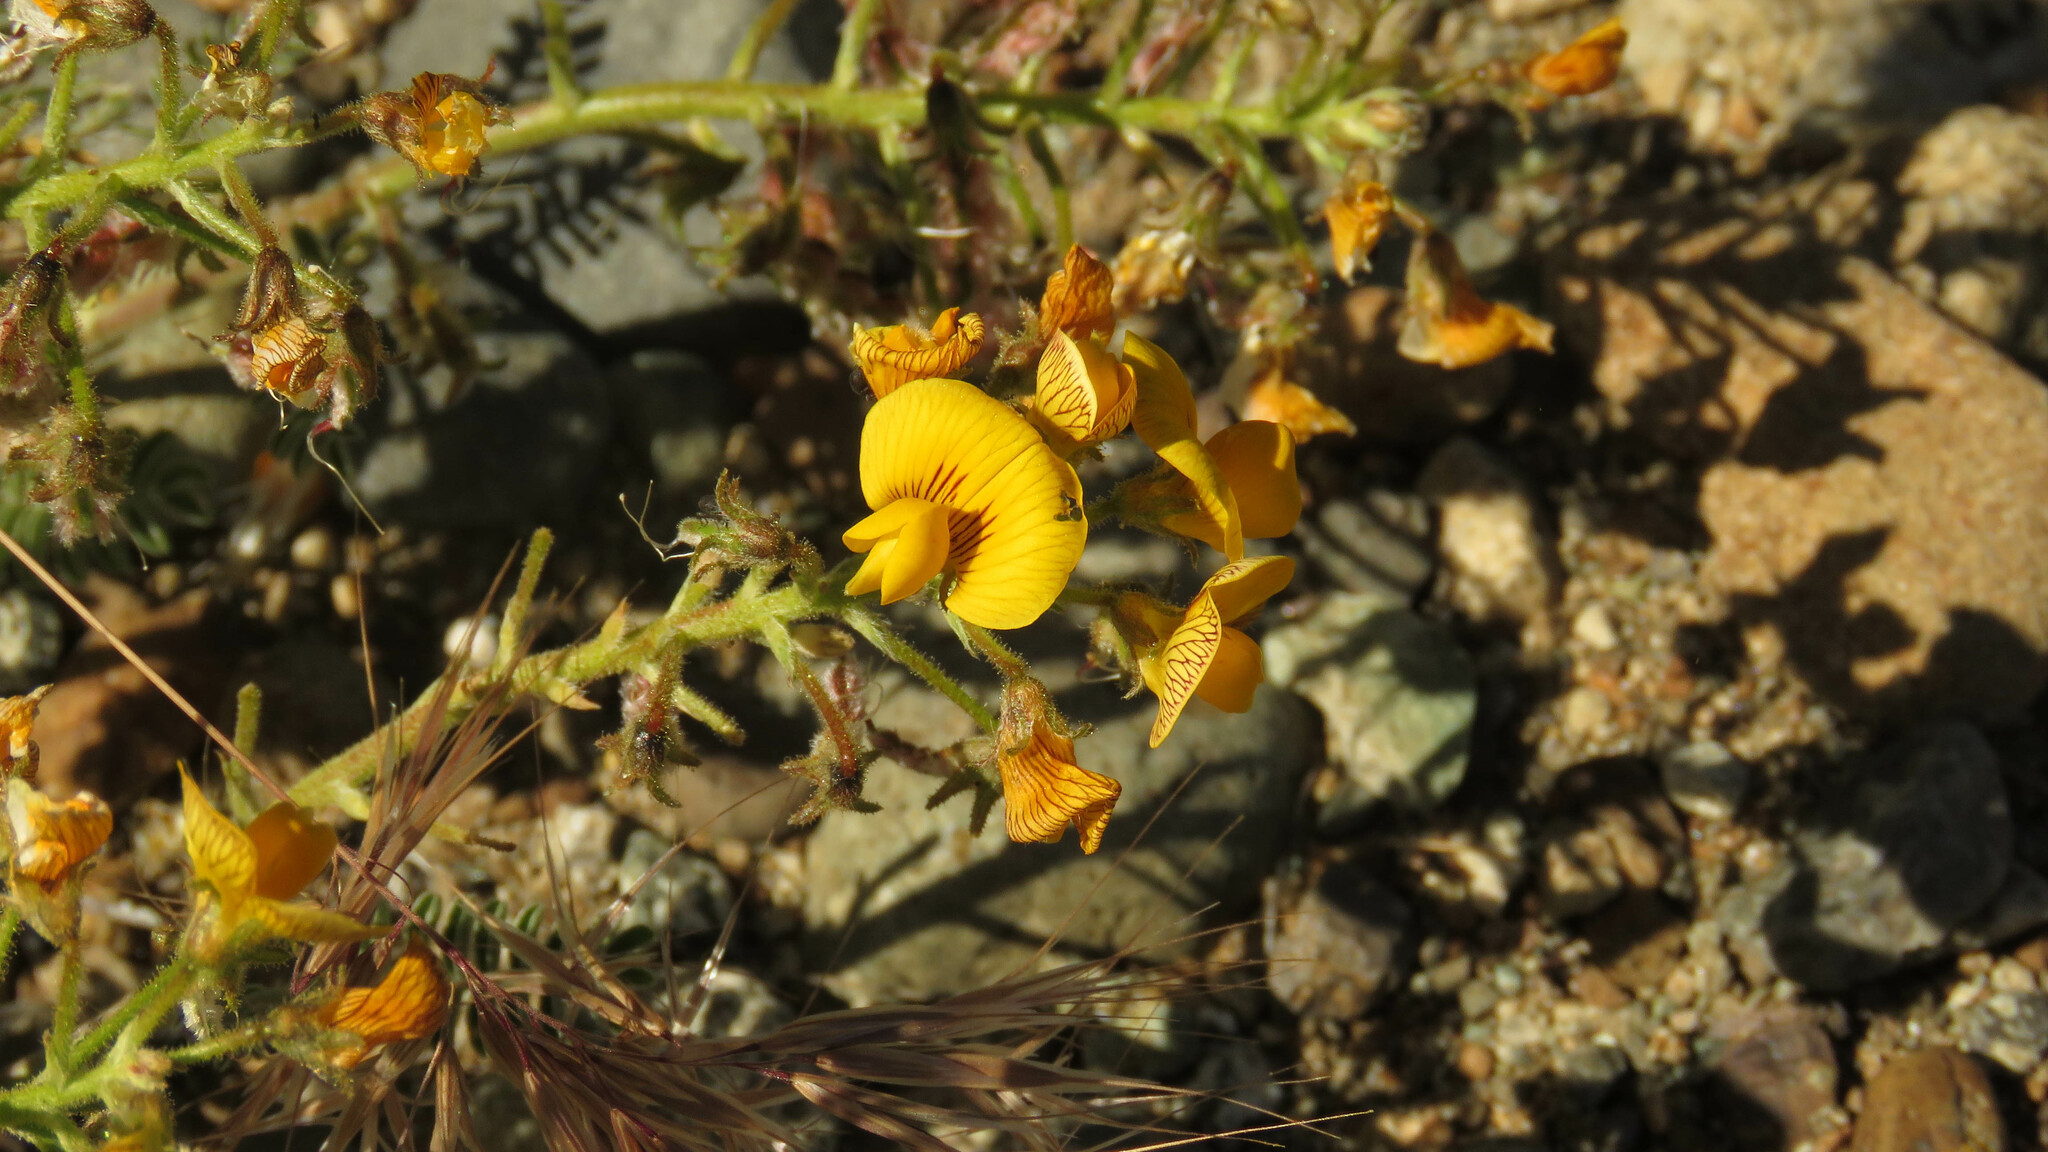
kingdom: Plantae
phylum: Tracheophyta
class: Magnoliopsida
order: Fabales
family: Fabaceae
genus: Adesmia
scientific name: Adesmia corymbosa
